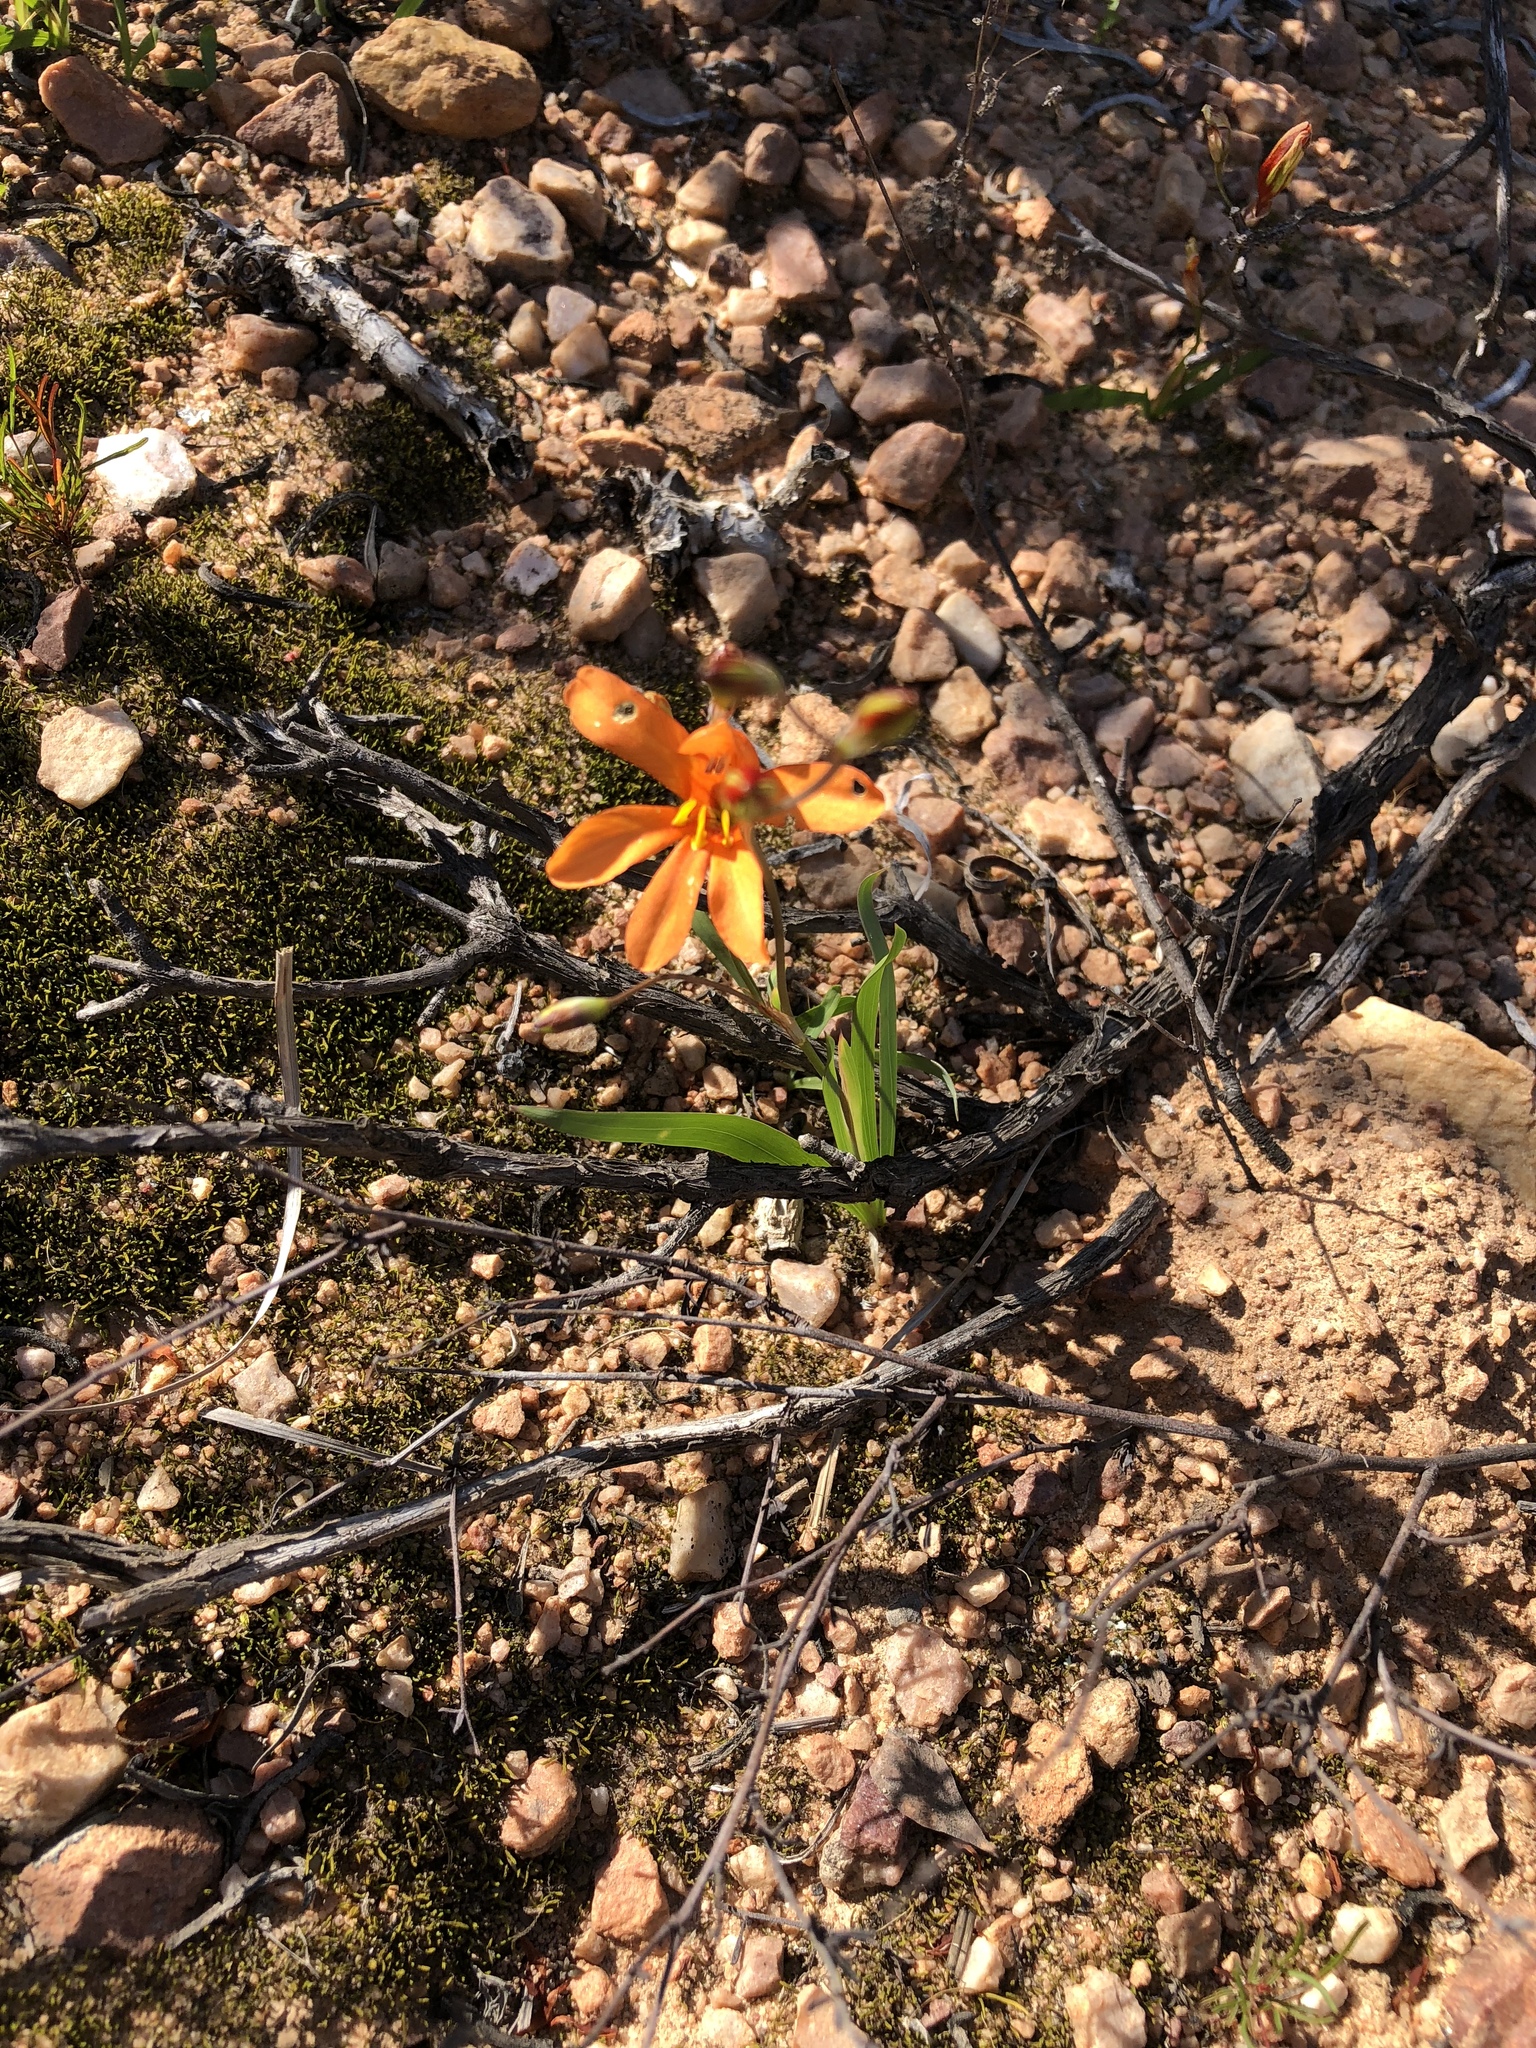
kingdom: Plantae
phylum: Tracheophyta
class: Liliopsida
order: Asparagales
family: Iridaceae
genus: Tritonia
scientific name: Tritonia securigera
